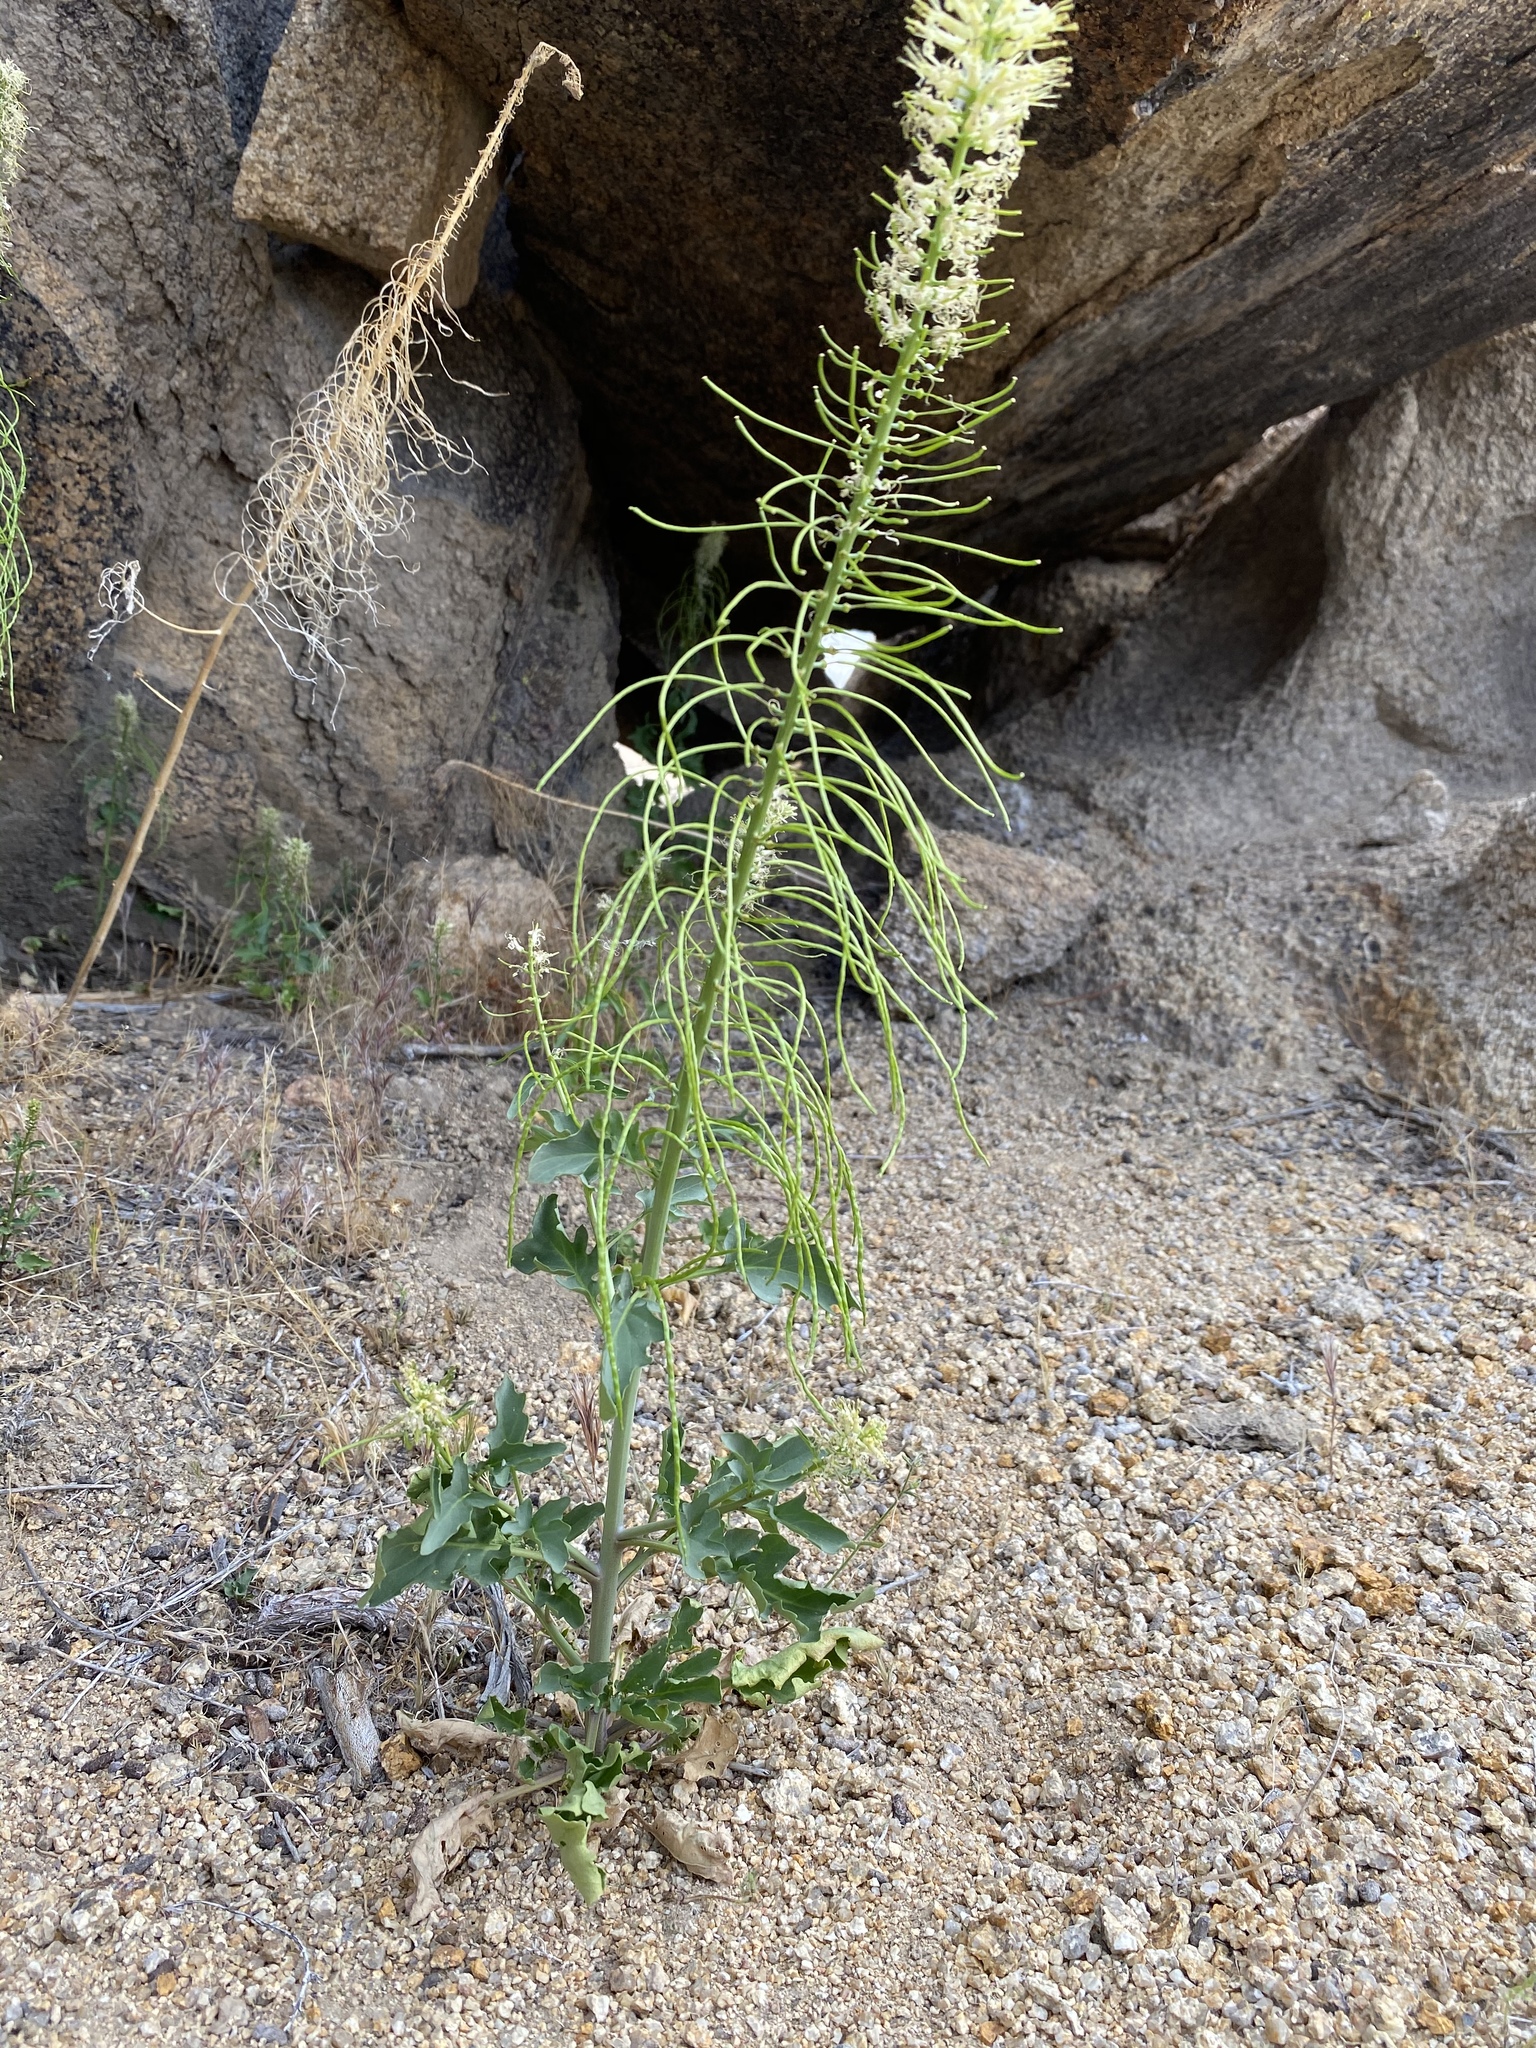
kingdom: Plantae
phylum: Tracheophyta
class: Magnoliopsida
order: Brassicales
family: Brassicaceae
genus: Thelypodium
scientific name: Thelypodium laciniatum
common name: Cut-leaved thelypody
